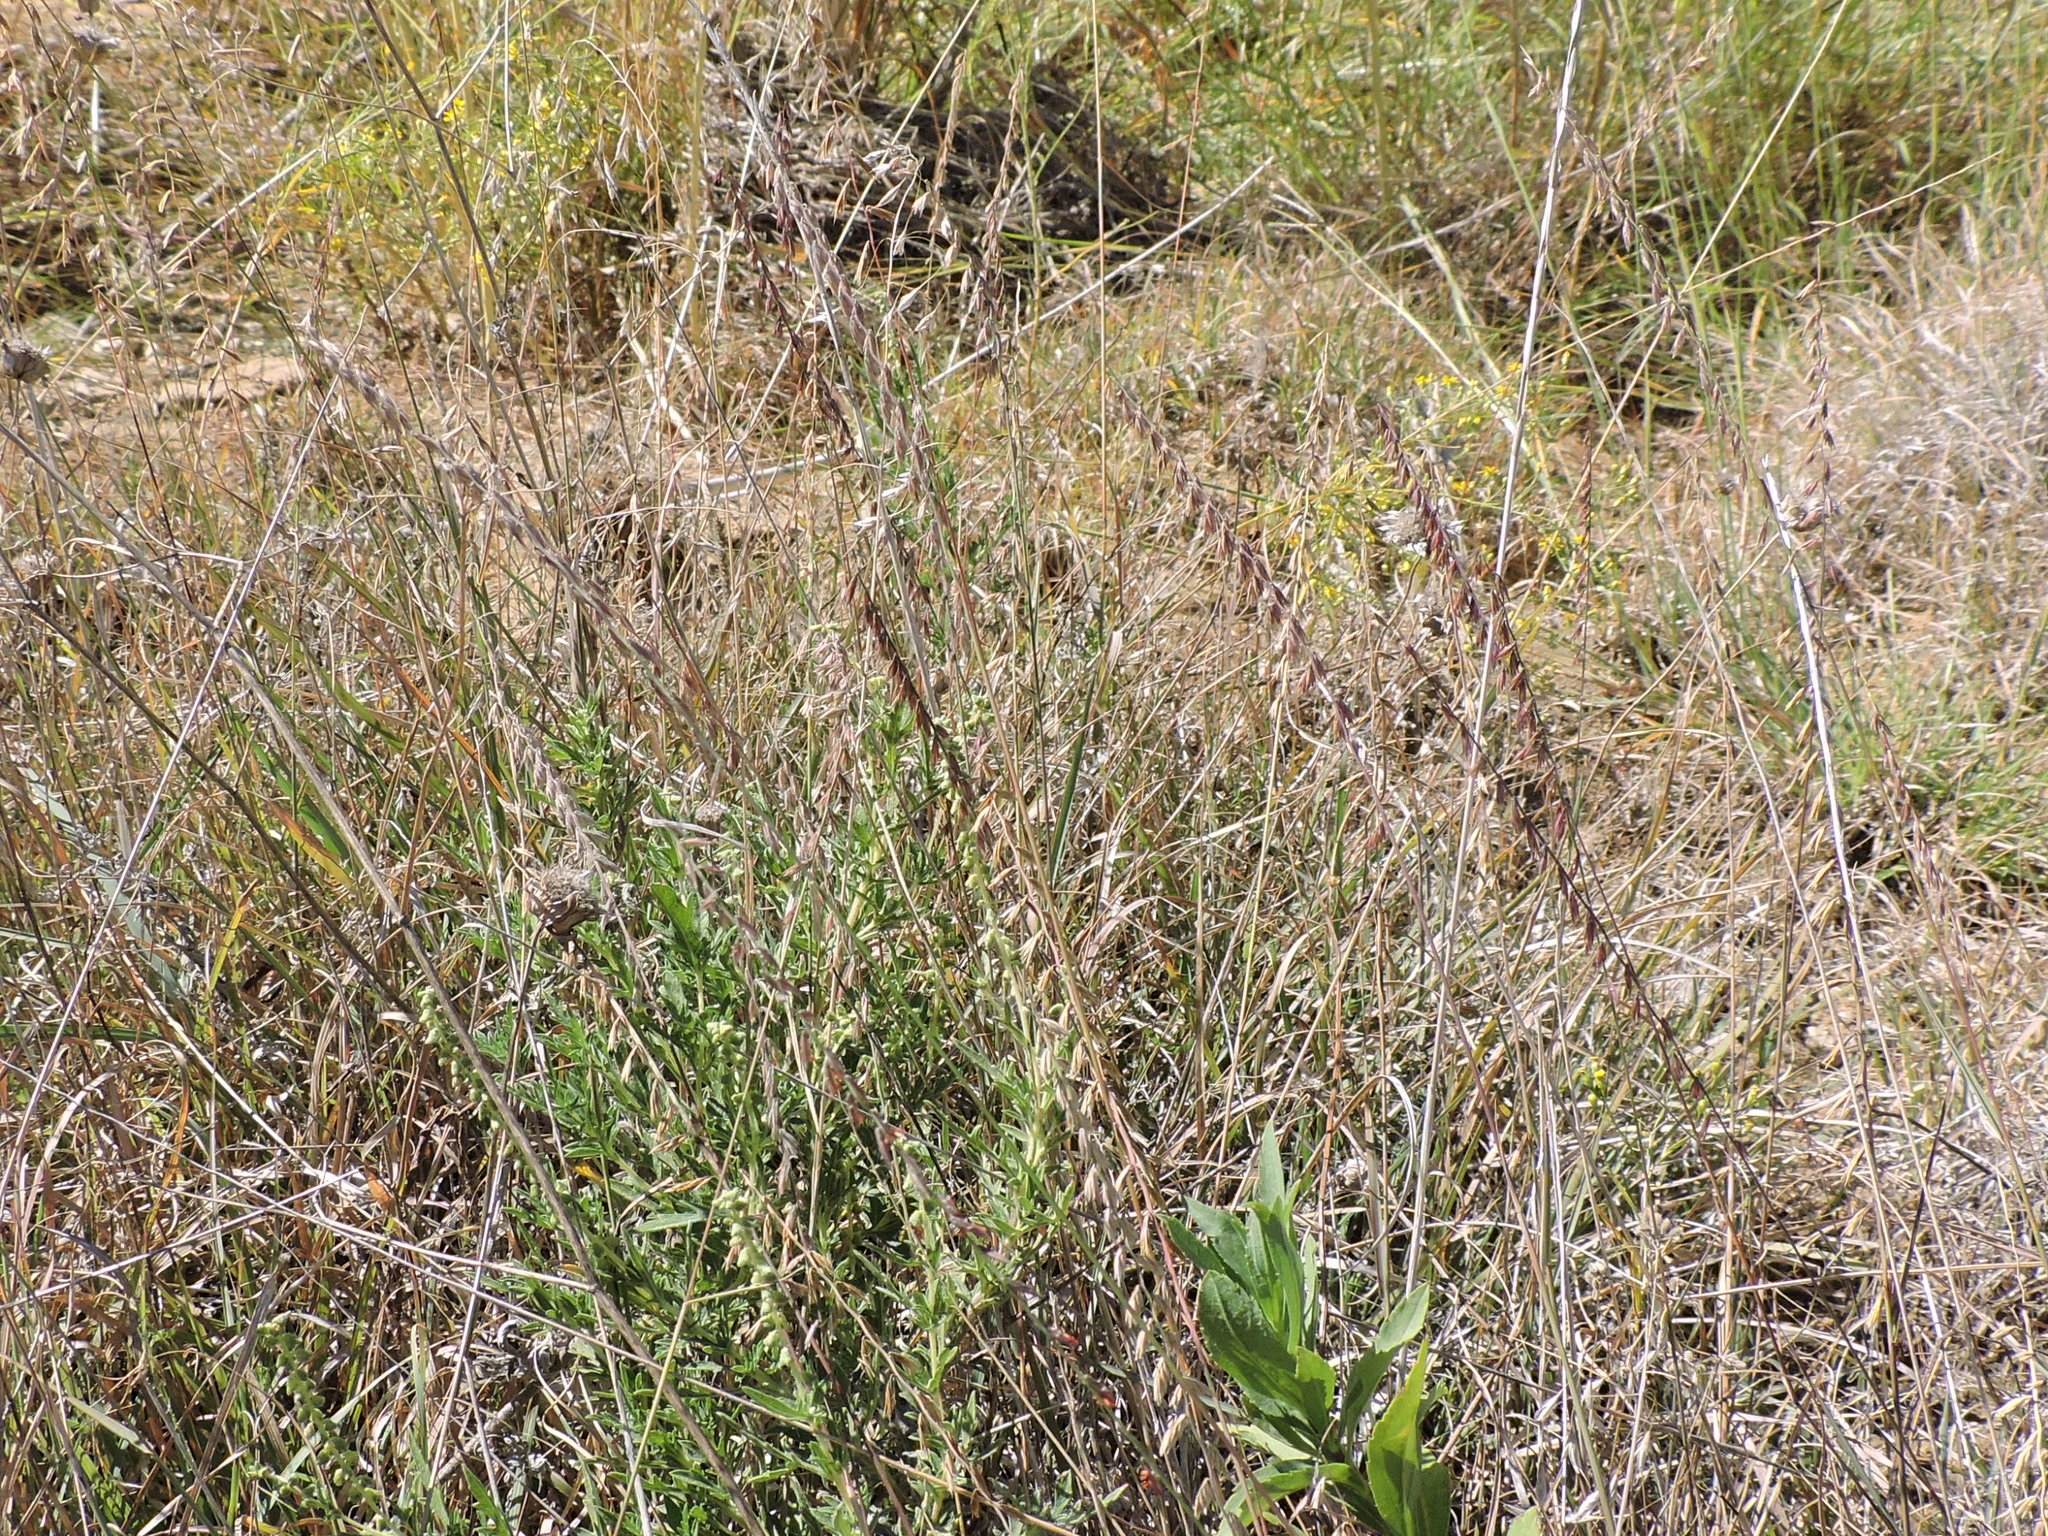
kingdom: Plantae
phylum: Tracheophyta
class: Liliopsida
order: Poales
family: Poaceae
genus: Bouteloua
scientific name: Bouteloua curtipendula
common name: Side-oats grama
